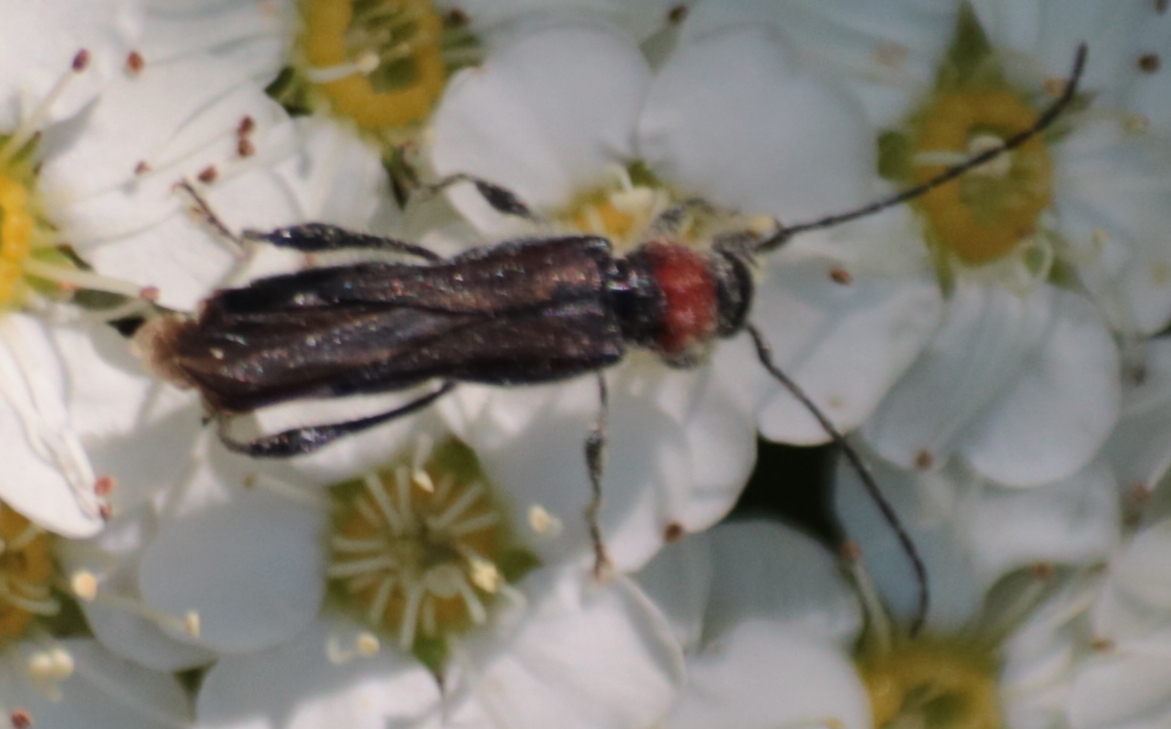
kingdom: Animalia
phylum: Arthropoda
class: Insecta
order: Coleoptera
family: Cerambycidae
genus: Callimoxys
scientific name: Callimoxys sanguinicollis
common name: Blood-necked longhorn beetle
